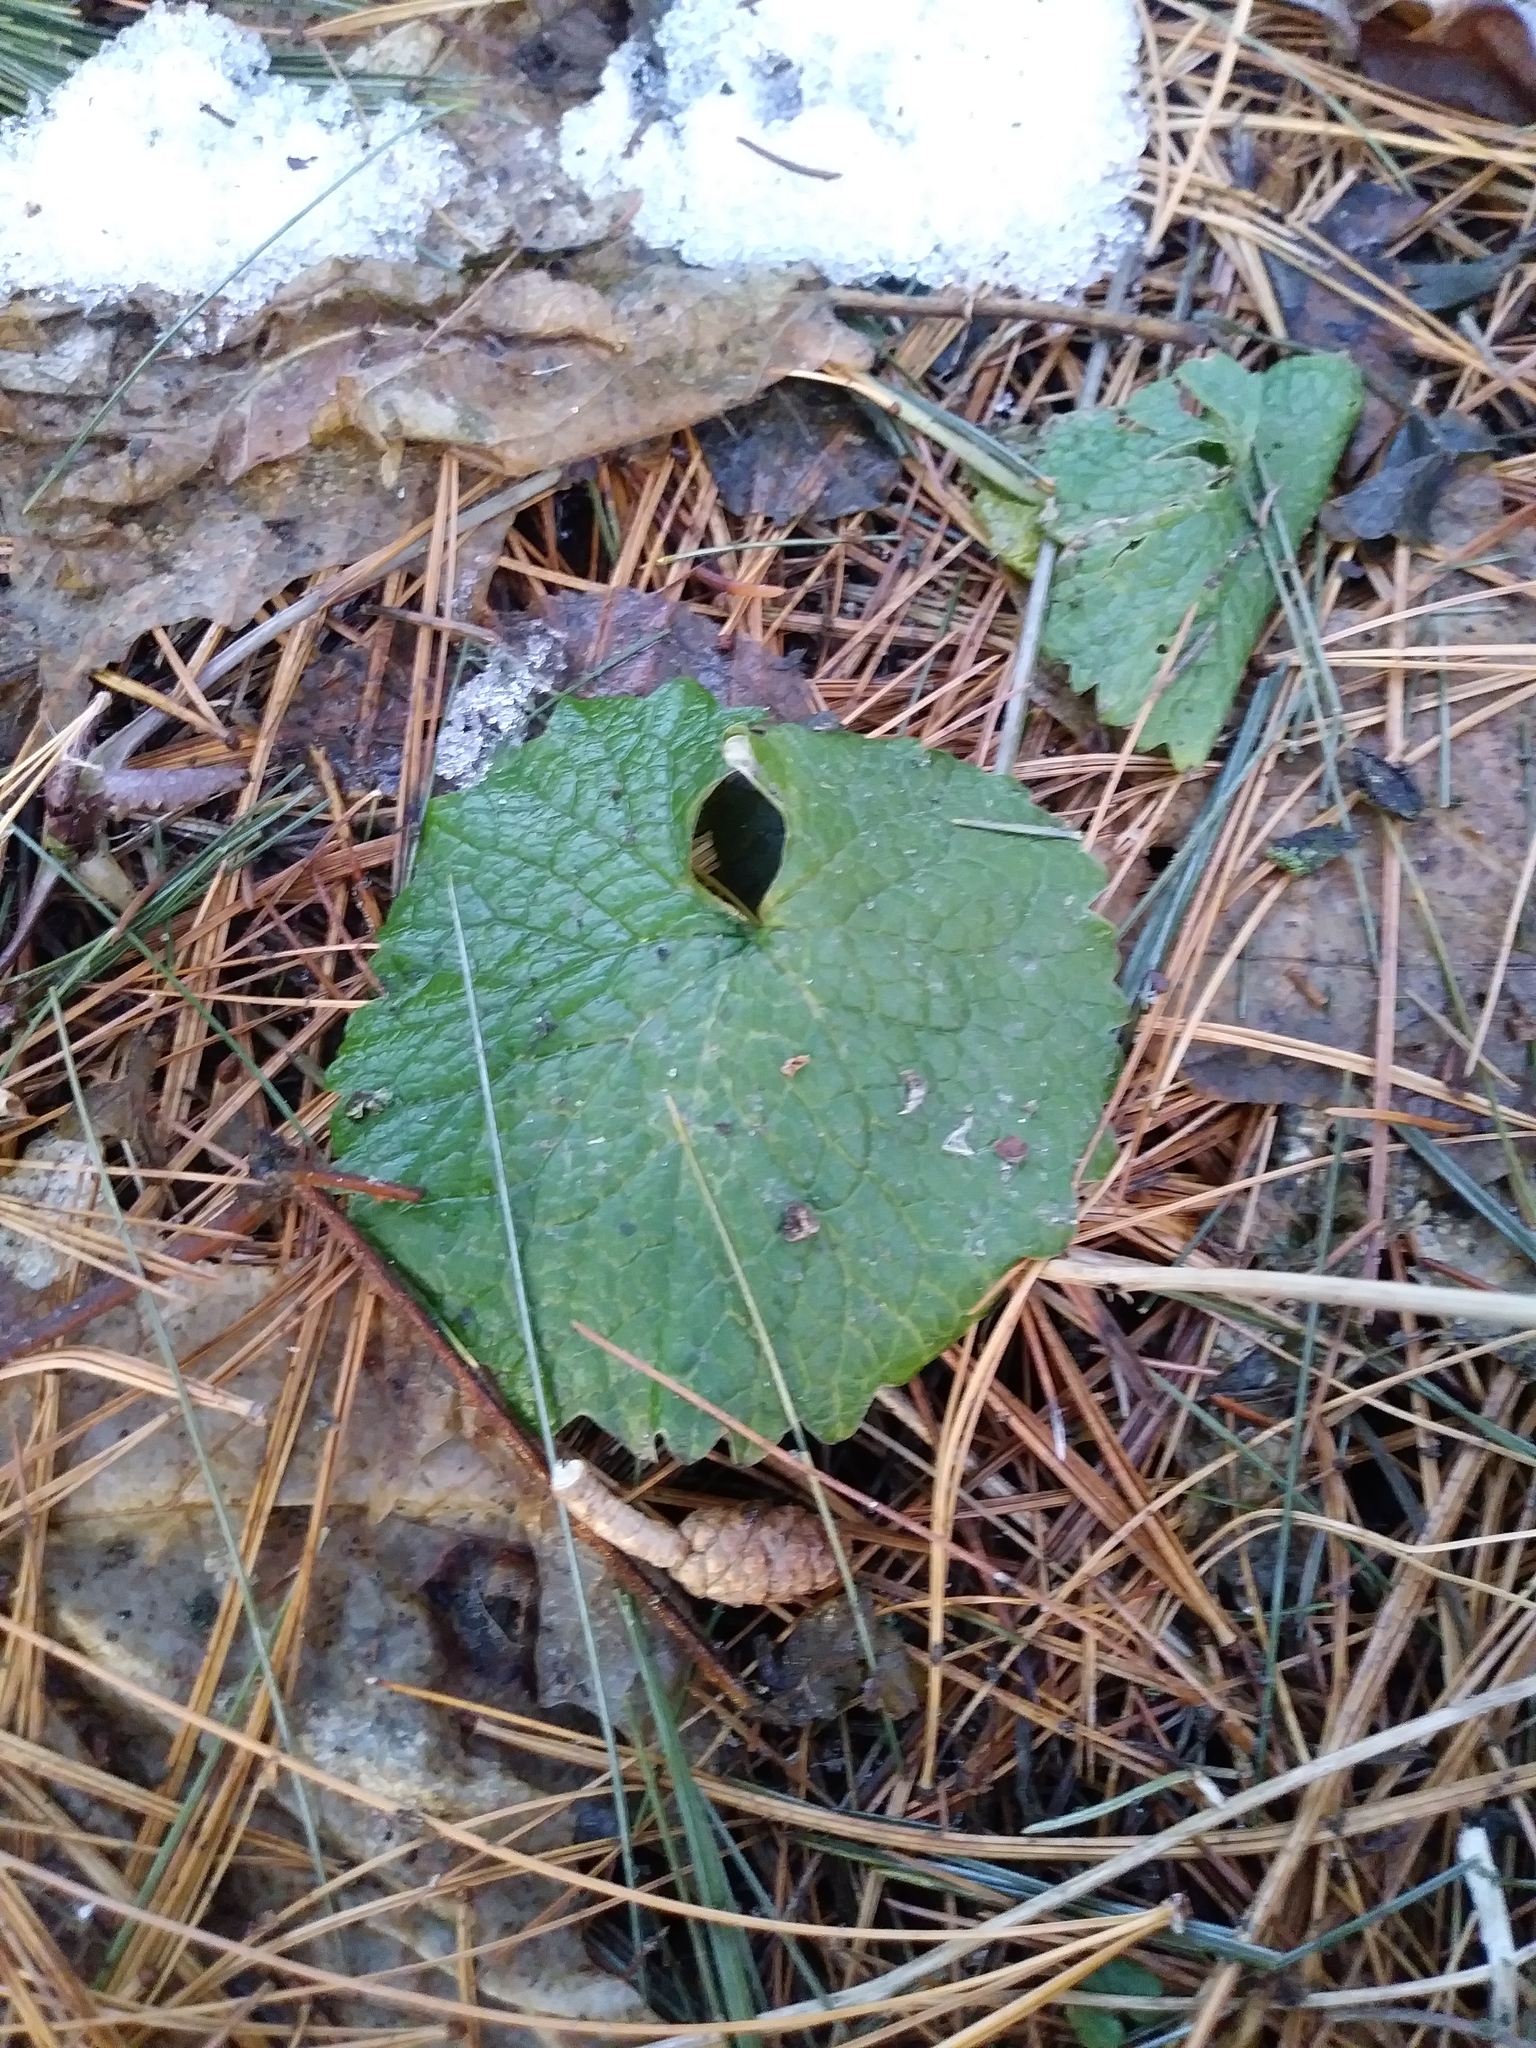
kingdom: Plantae
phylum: Tracheophyta
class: Magnoliopsida
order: Brassicales
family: Brassicaceae
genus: Alliaria
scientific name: Alliaria petiolata
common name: Garlic mustard
